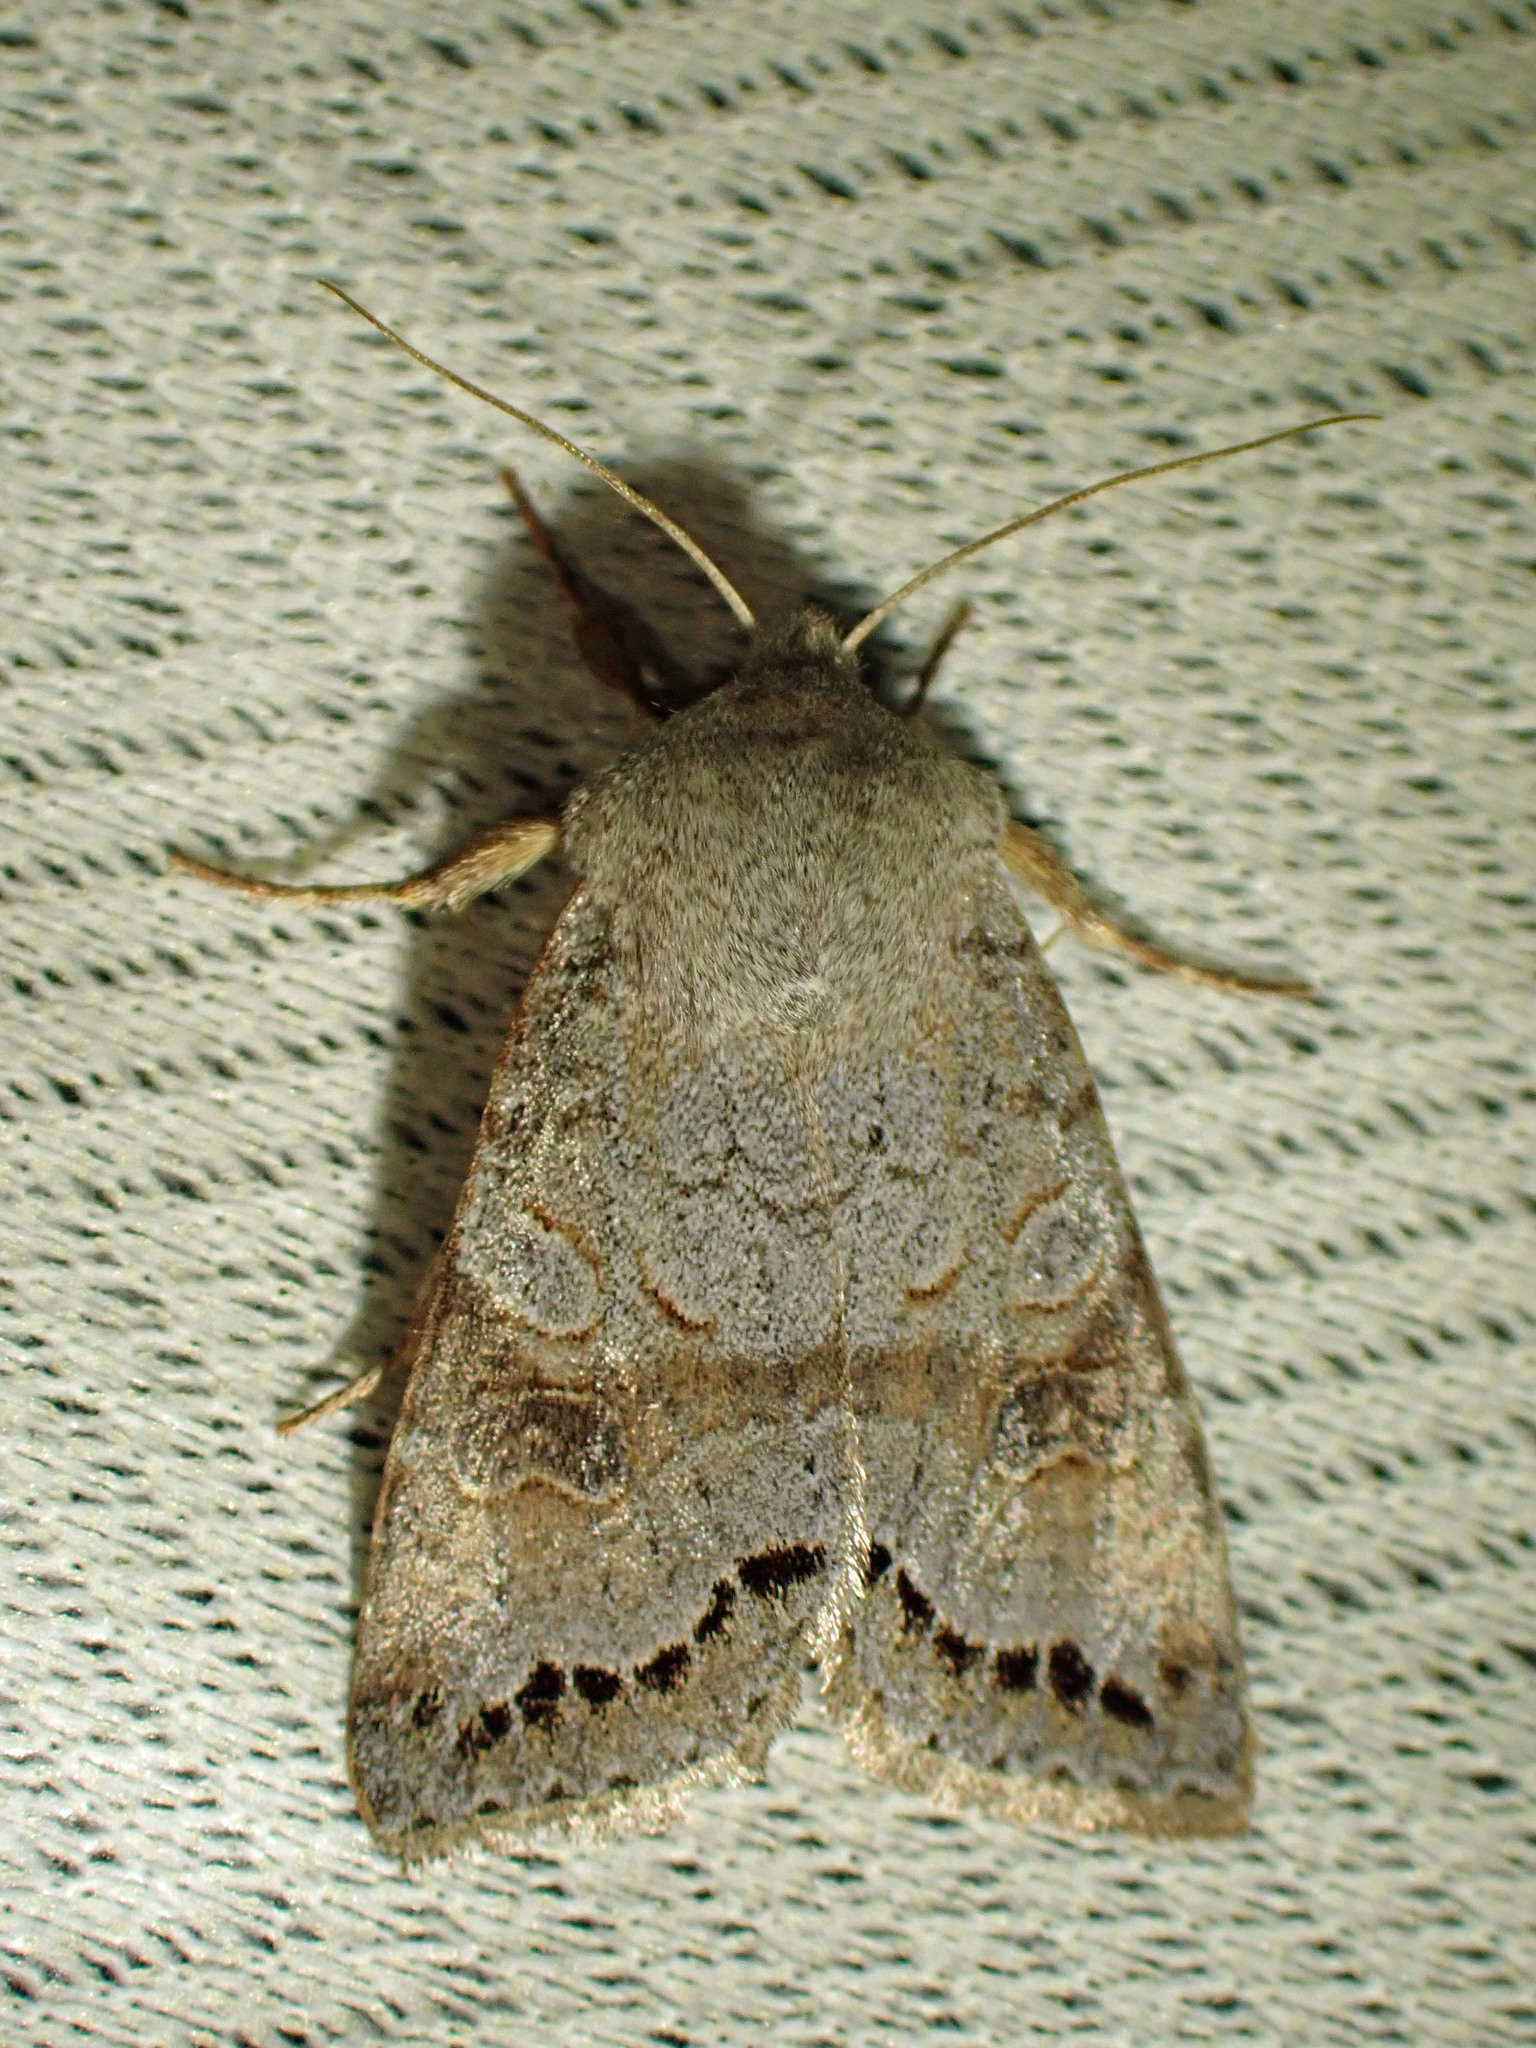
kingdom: Animalia
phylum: Arthropoda
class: Insecta
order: Lepidoptera
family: Noctuidae
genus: Orthosia
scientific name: Orthosia revicta
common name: Rusty whitesided caterpillar
